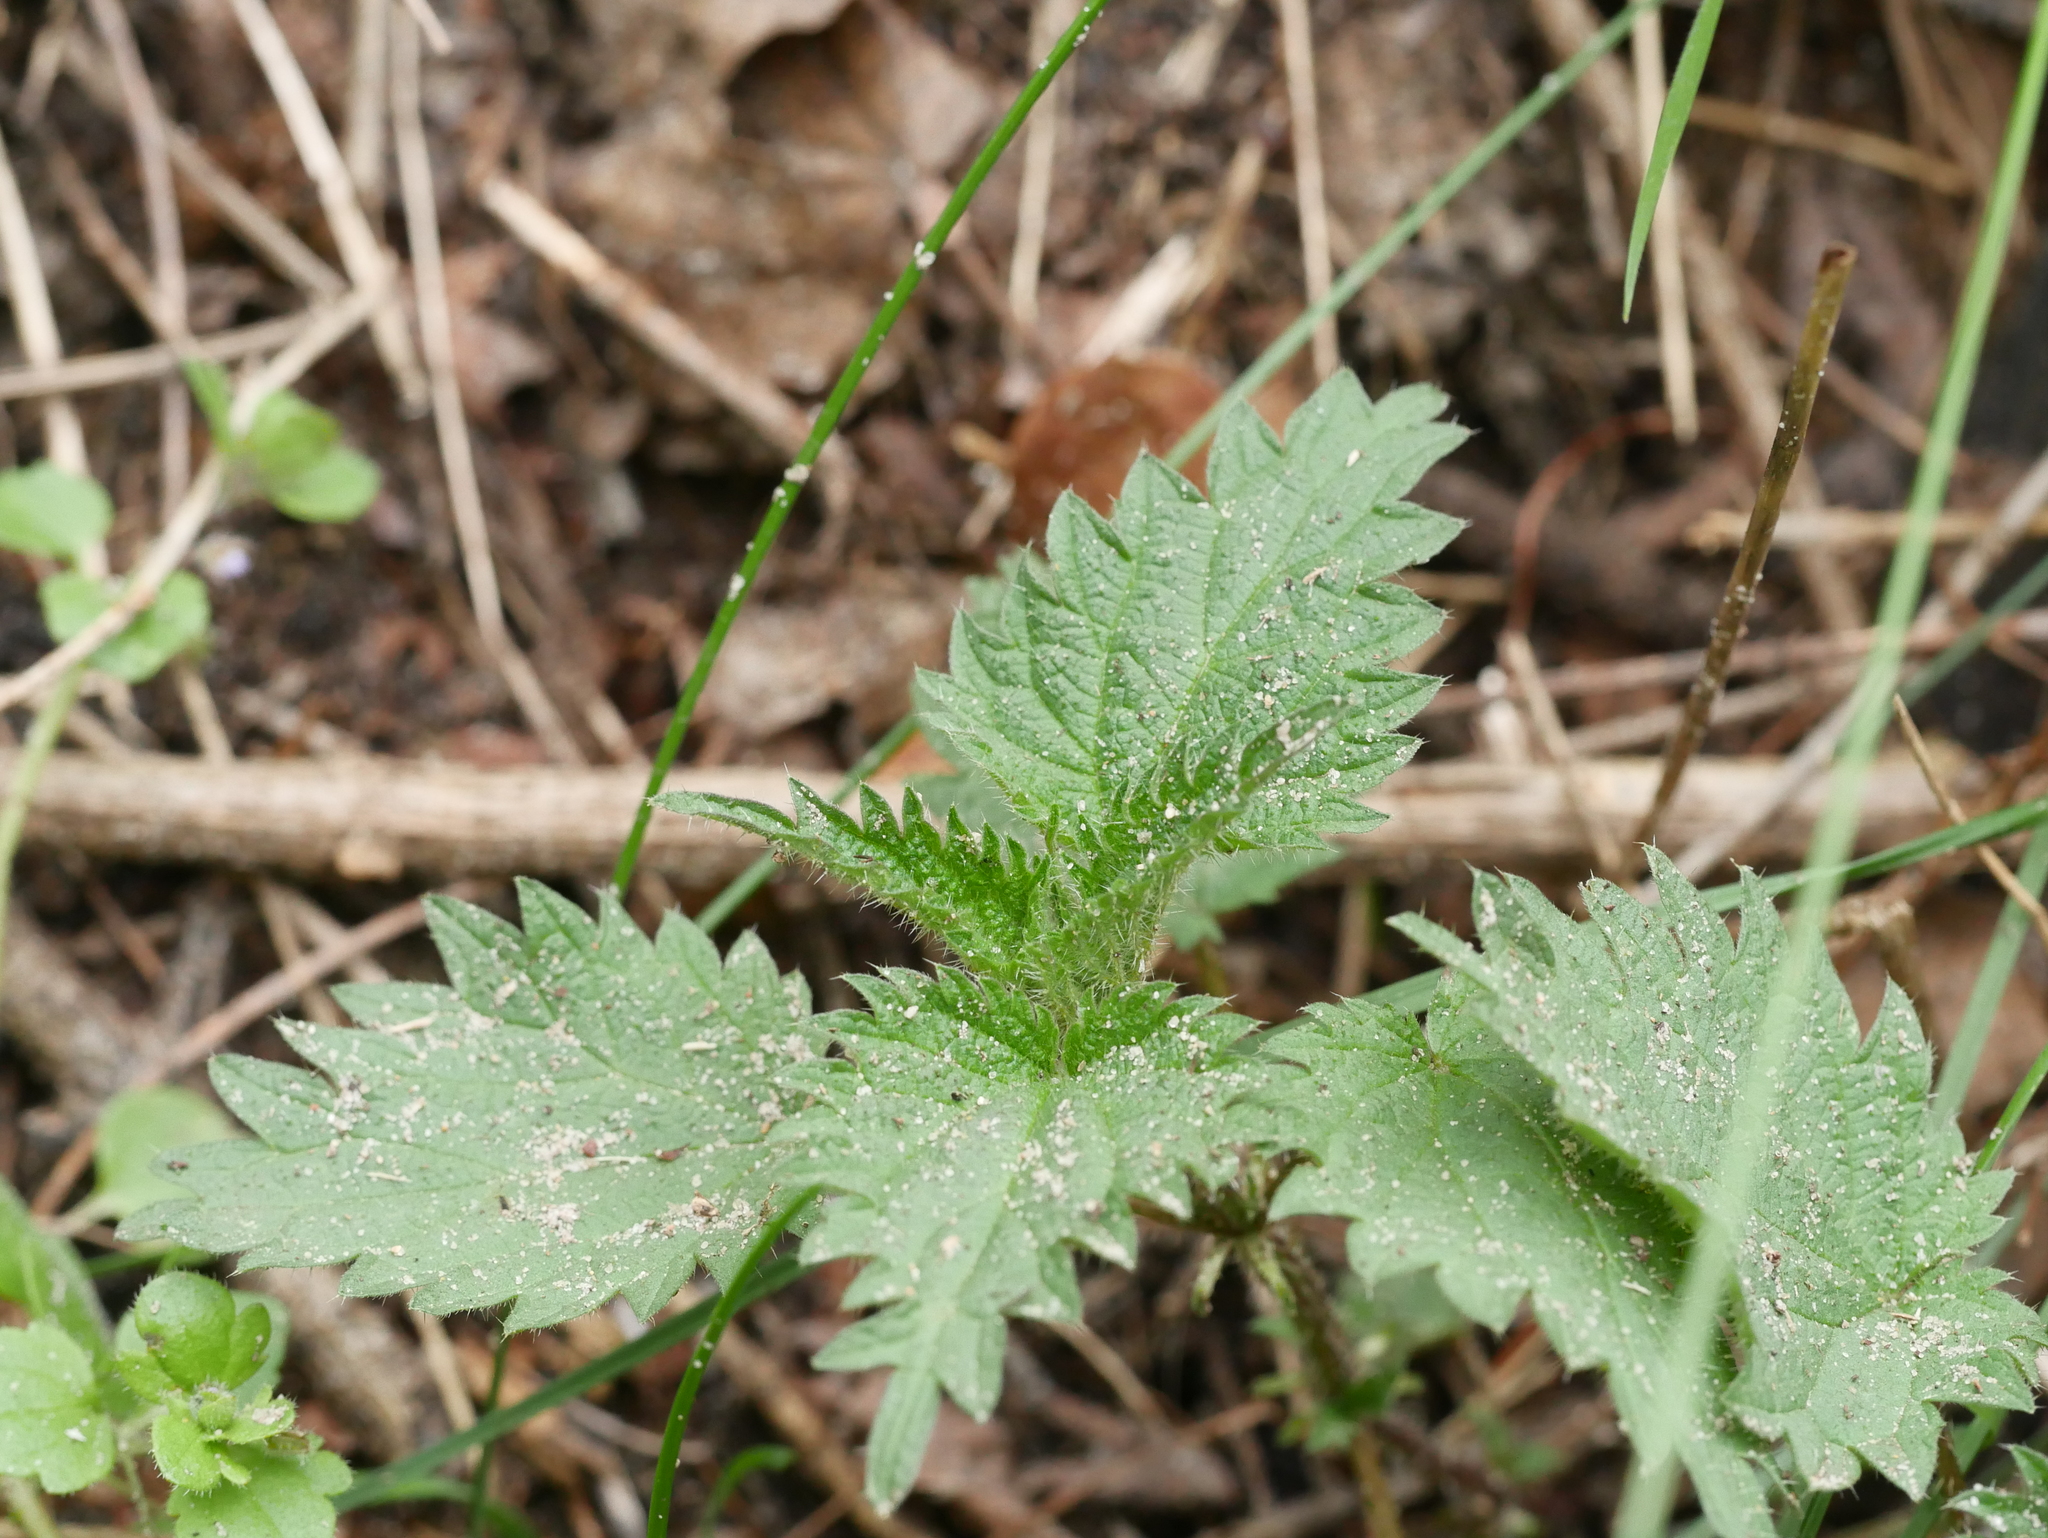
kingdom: Plantae
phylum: Tracheophyta
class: Magnoliopsida
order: Rosales
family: Urticaceae
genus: Urtica
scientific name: Urtica dioica
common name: Common nettle
